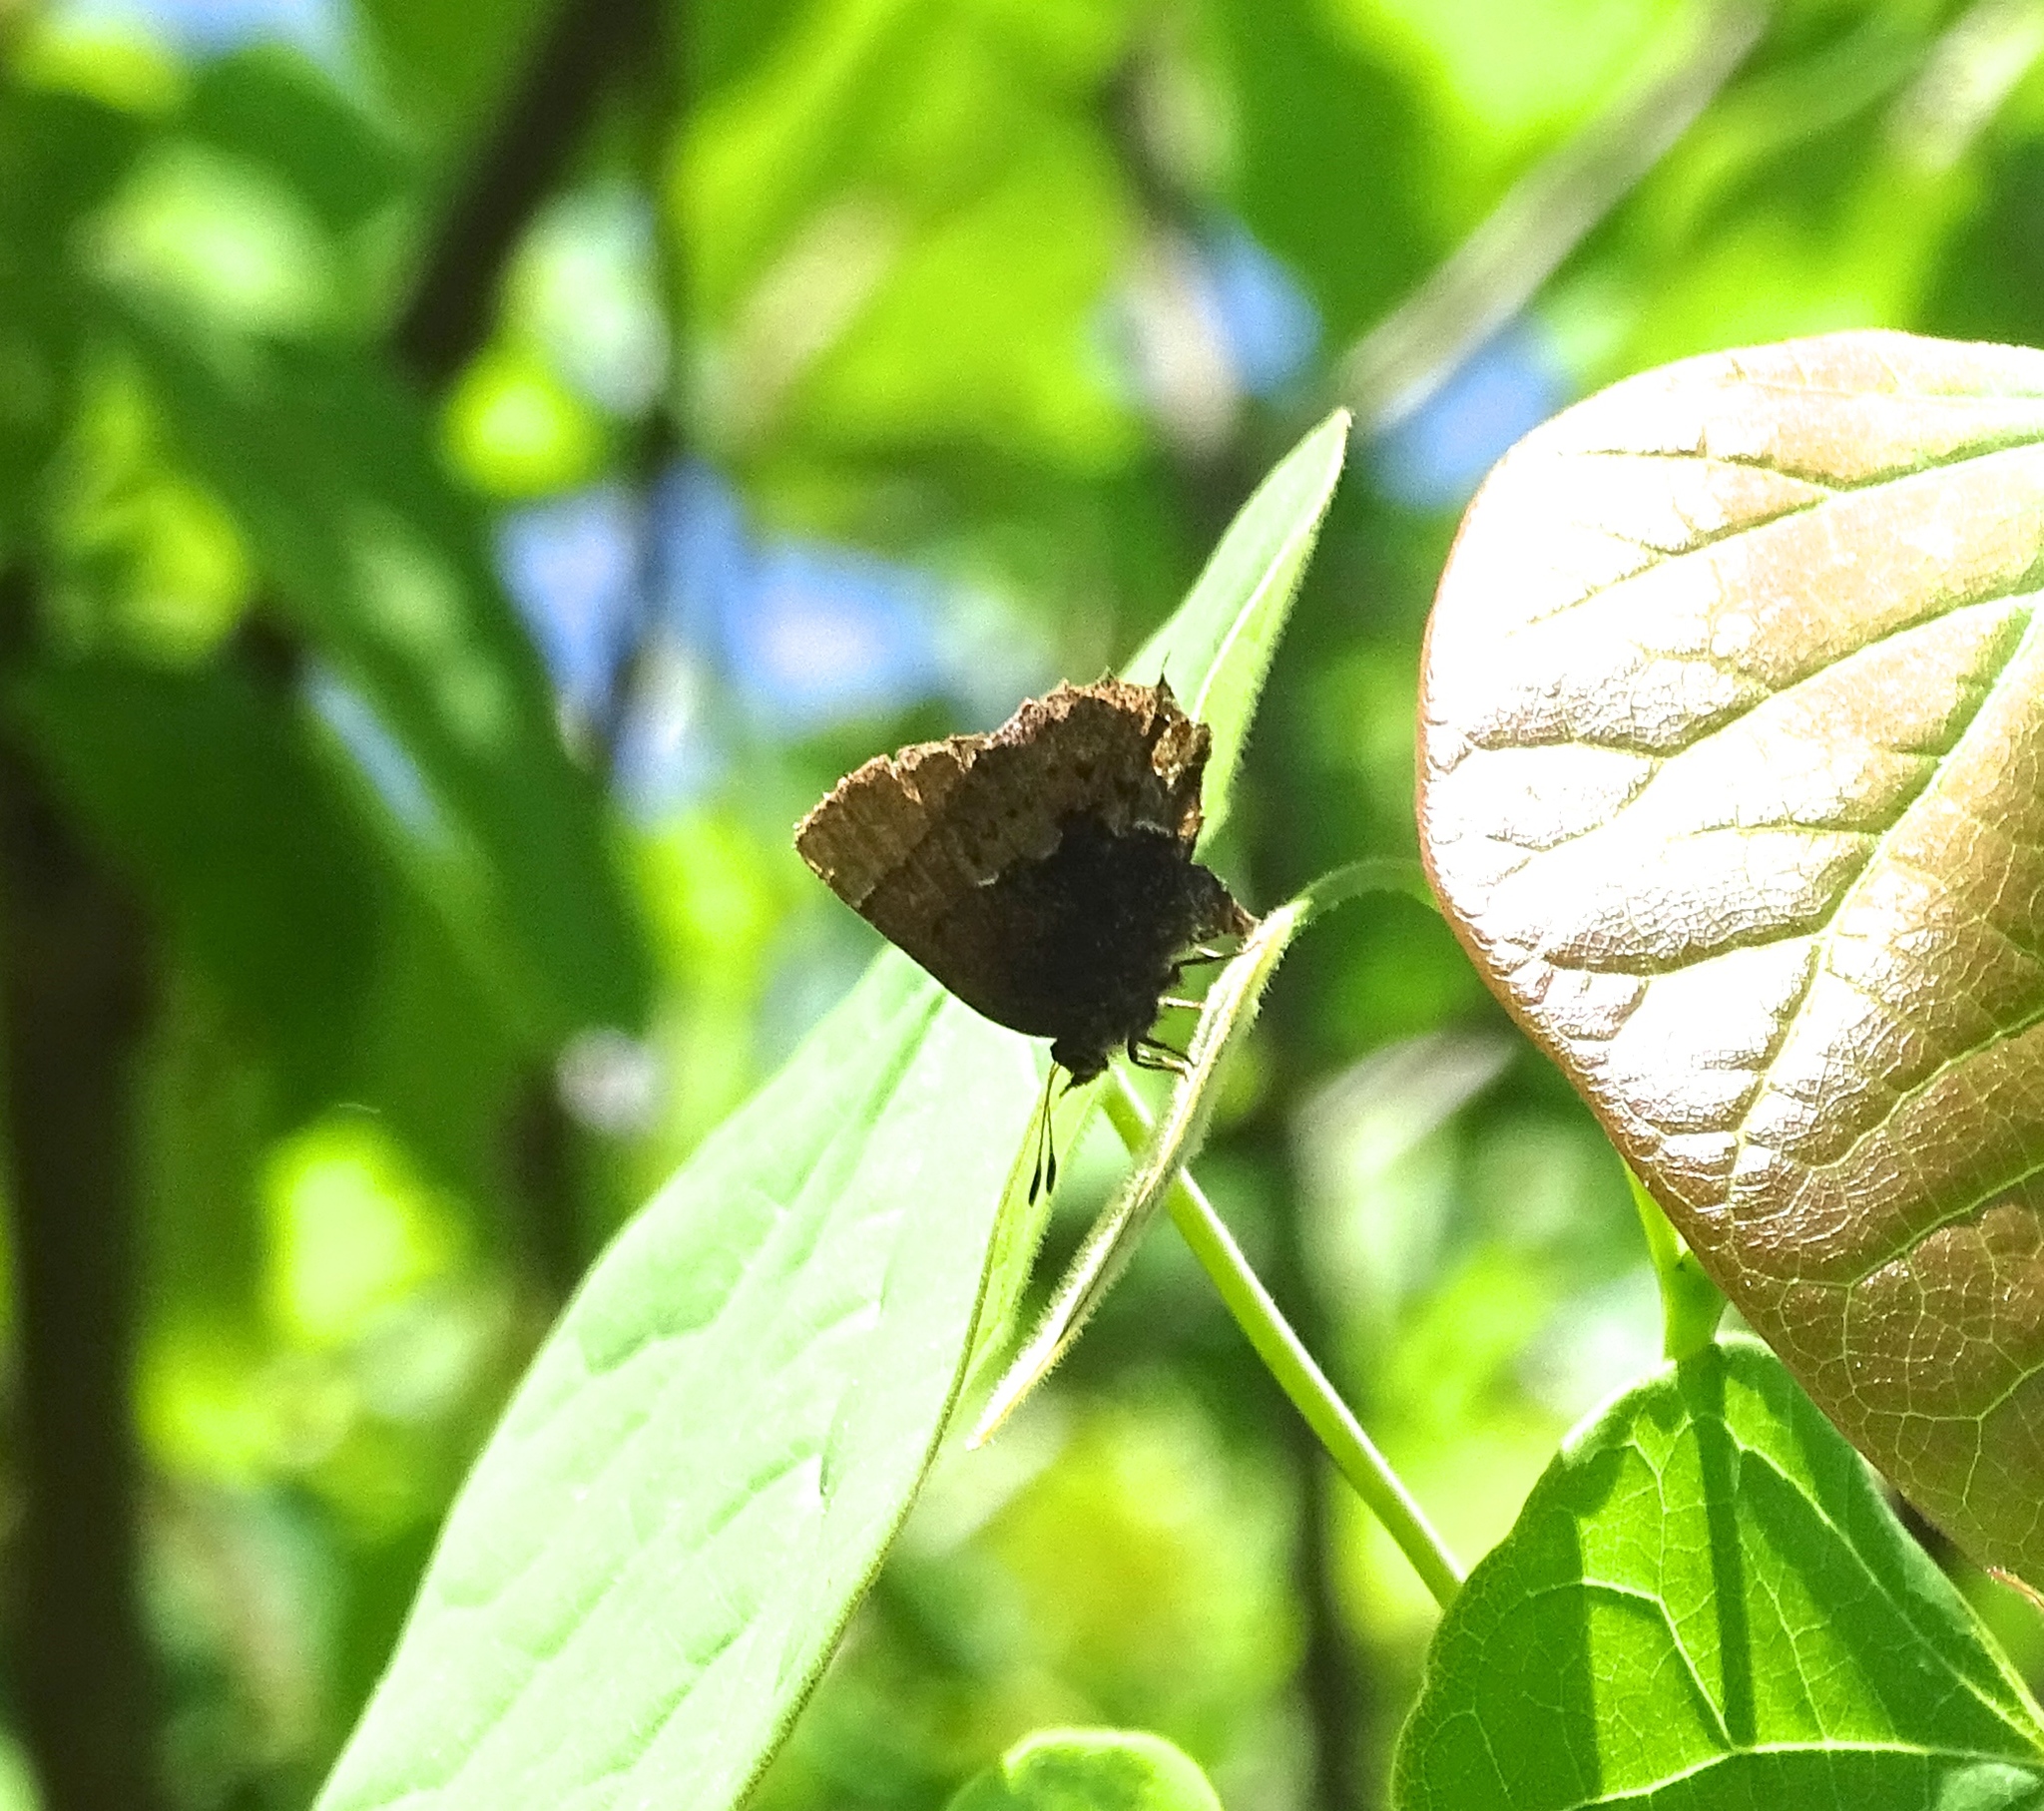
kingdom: Animalia
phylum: Arthropoda
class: Insecta
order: Lepidoptera
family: Lycaenidae
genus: Incisalia
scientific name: Incisalia henrici
